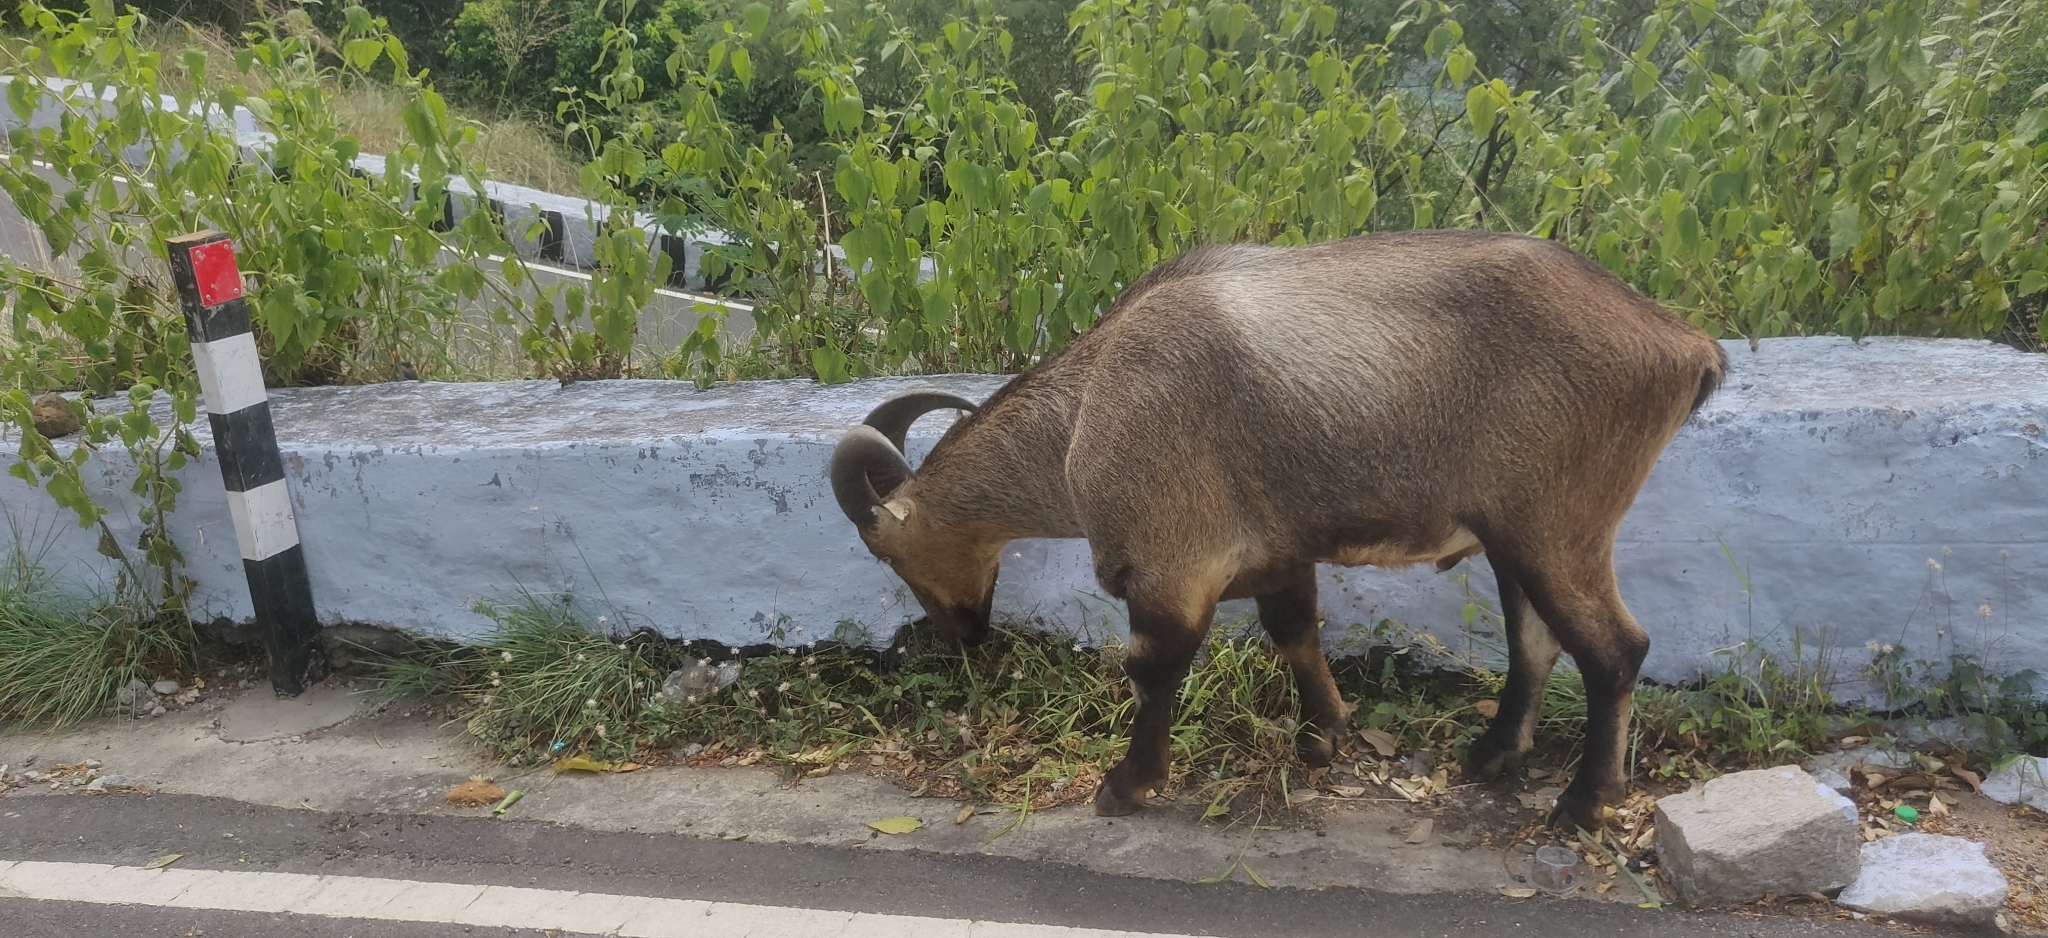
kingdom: Animalia
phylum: Chordata
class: Mammalia
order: Artiodactyla
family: Bovidae
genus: Hemitragus
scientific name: Hemitragus hylocrius
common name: Nilgiri tahr
